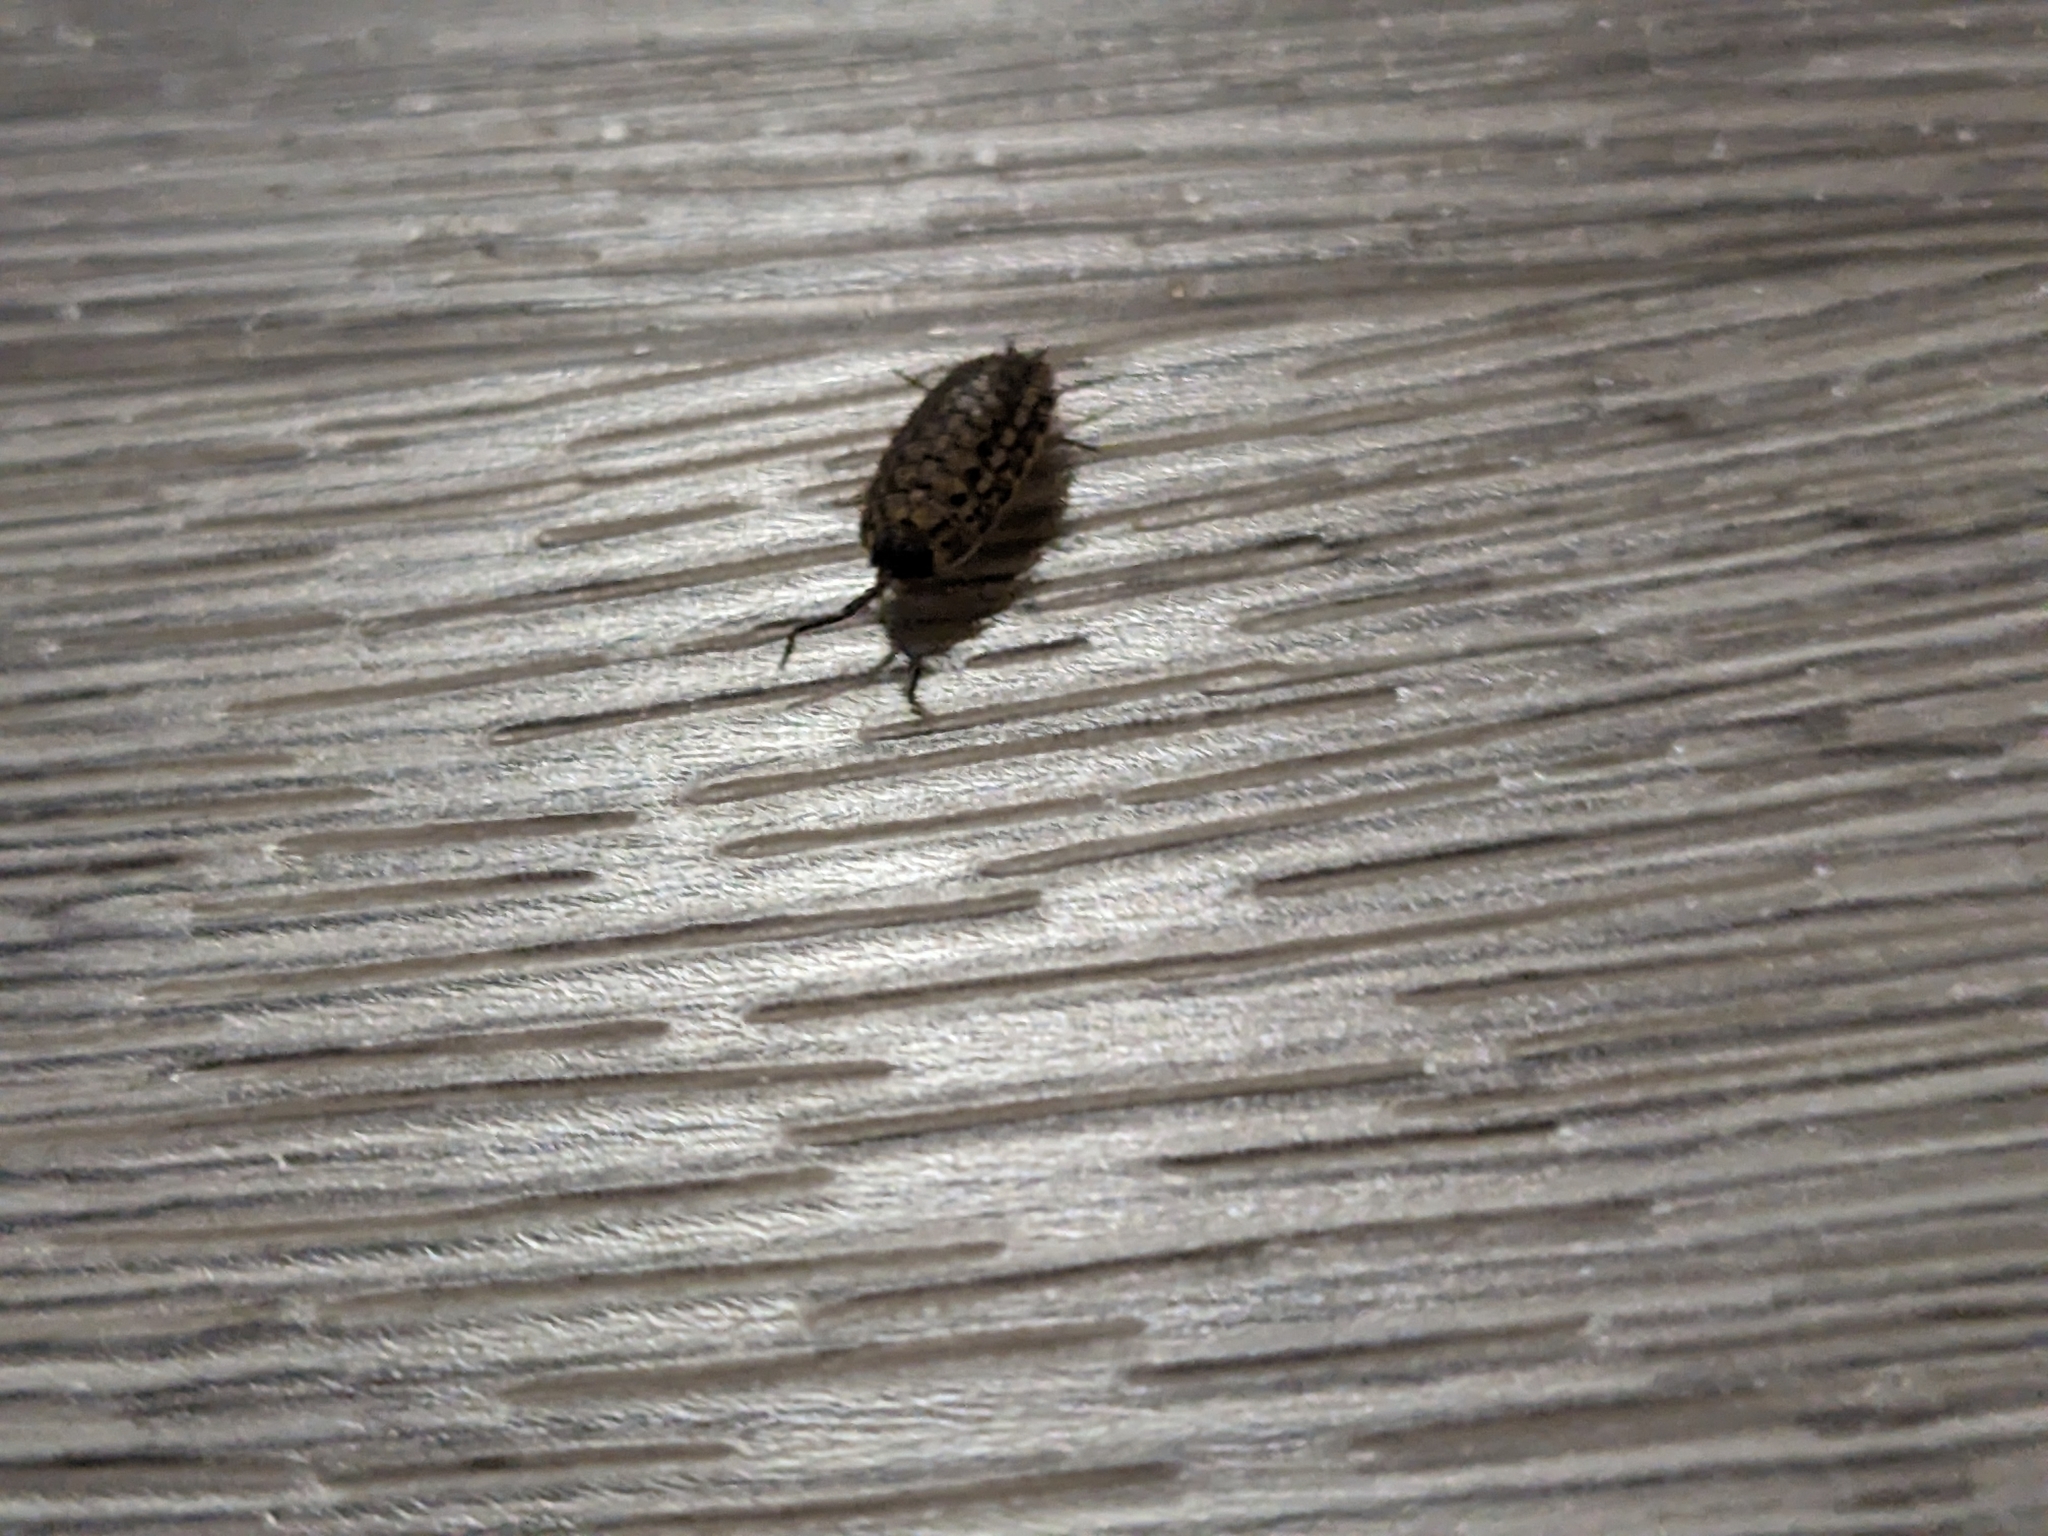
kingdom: Animalia
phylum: Arthropoda
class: Malacostraca
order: Isopoda
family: Porcellionidae
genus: Porcellio
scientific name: Porcellio spinicornis
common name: Painted woodlouse
